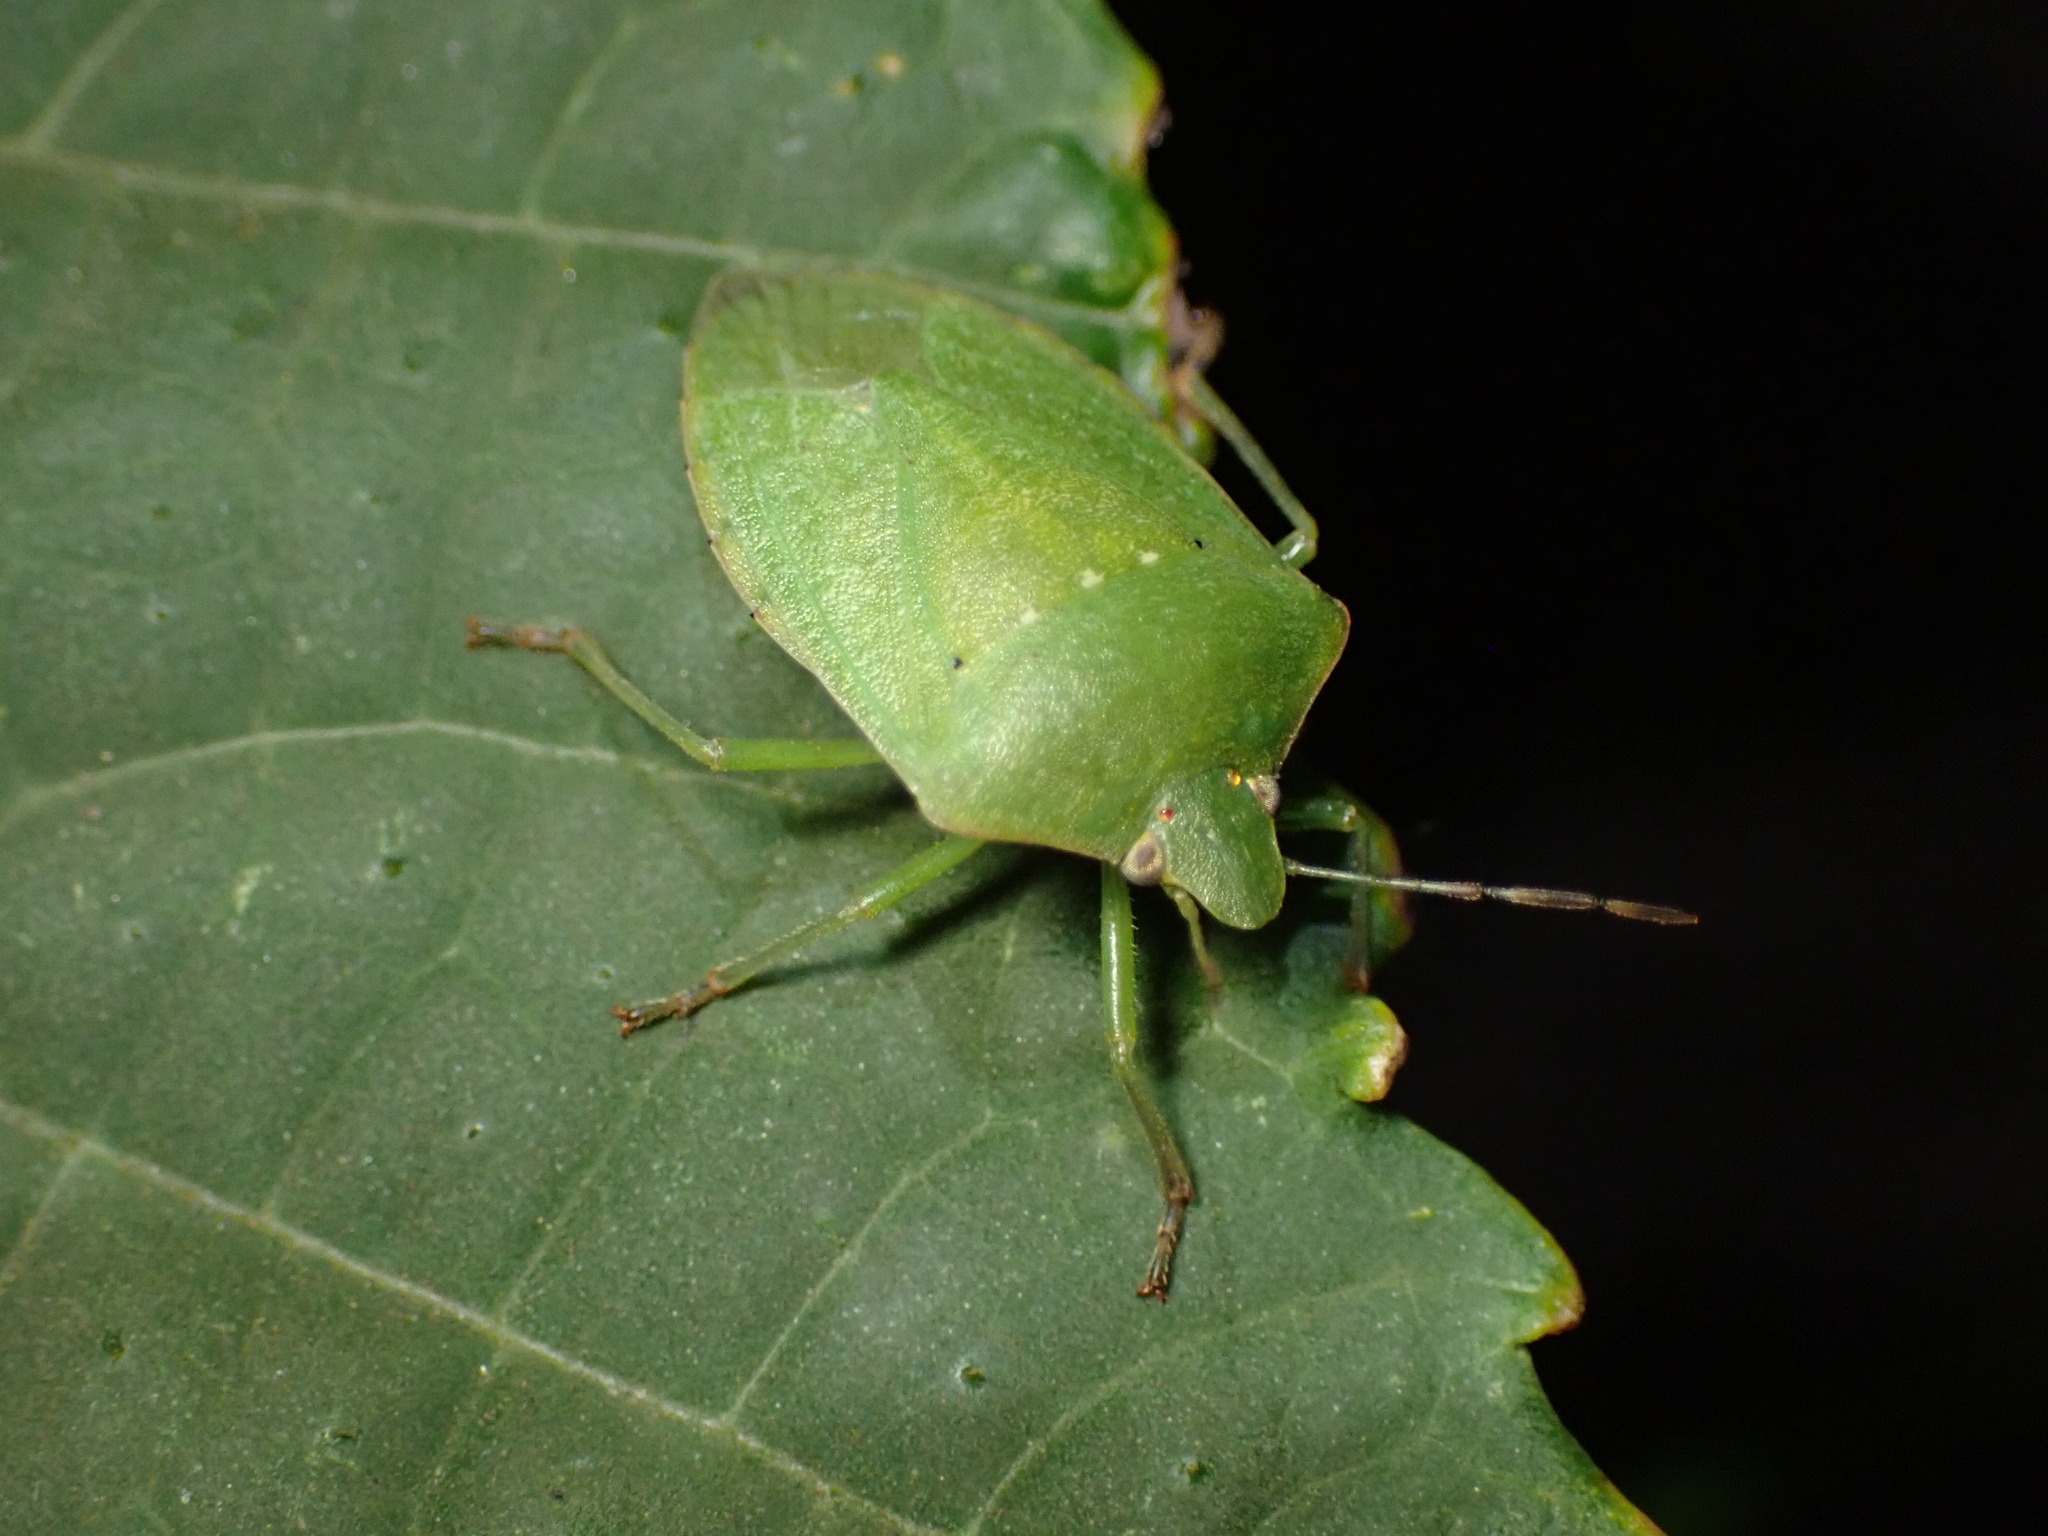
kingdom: Animalia
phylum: Arthropoda
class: Insecta
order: Hemiptera
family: Pentatomidae
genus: Nezara
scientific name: Nezara viridula
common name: Southern green stink bug
